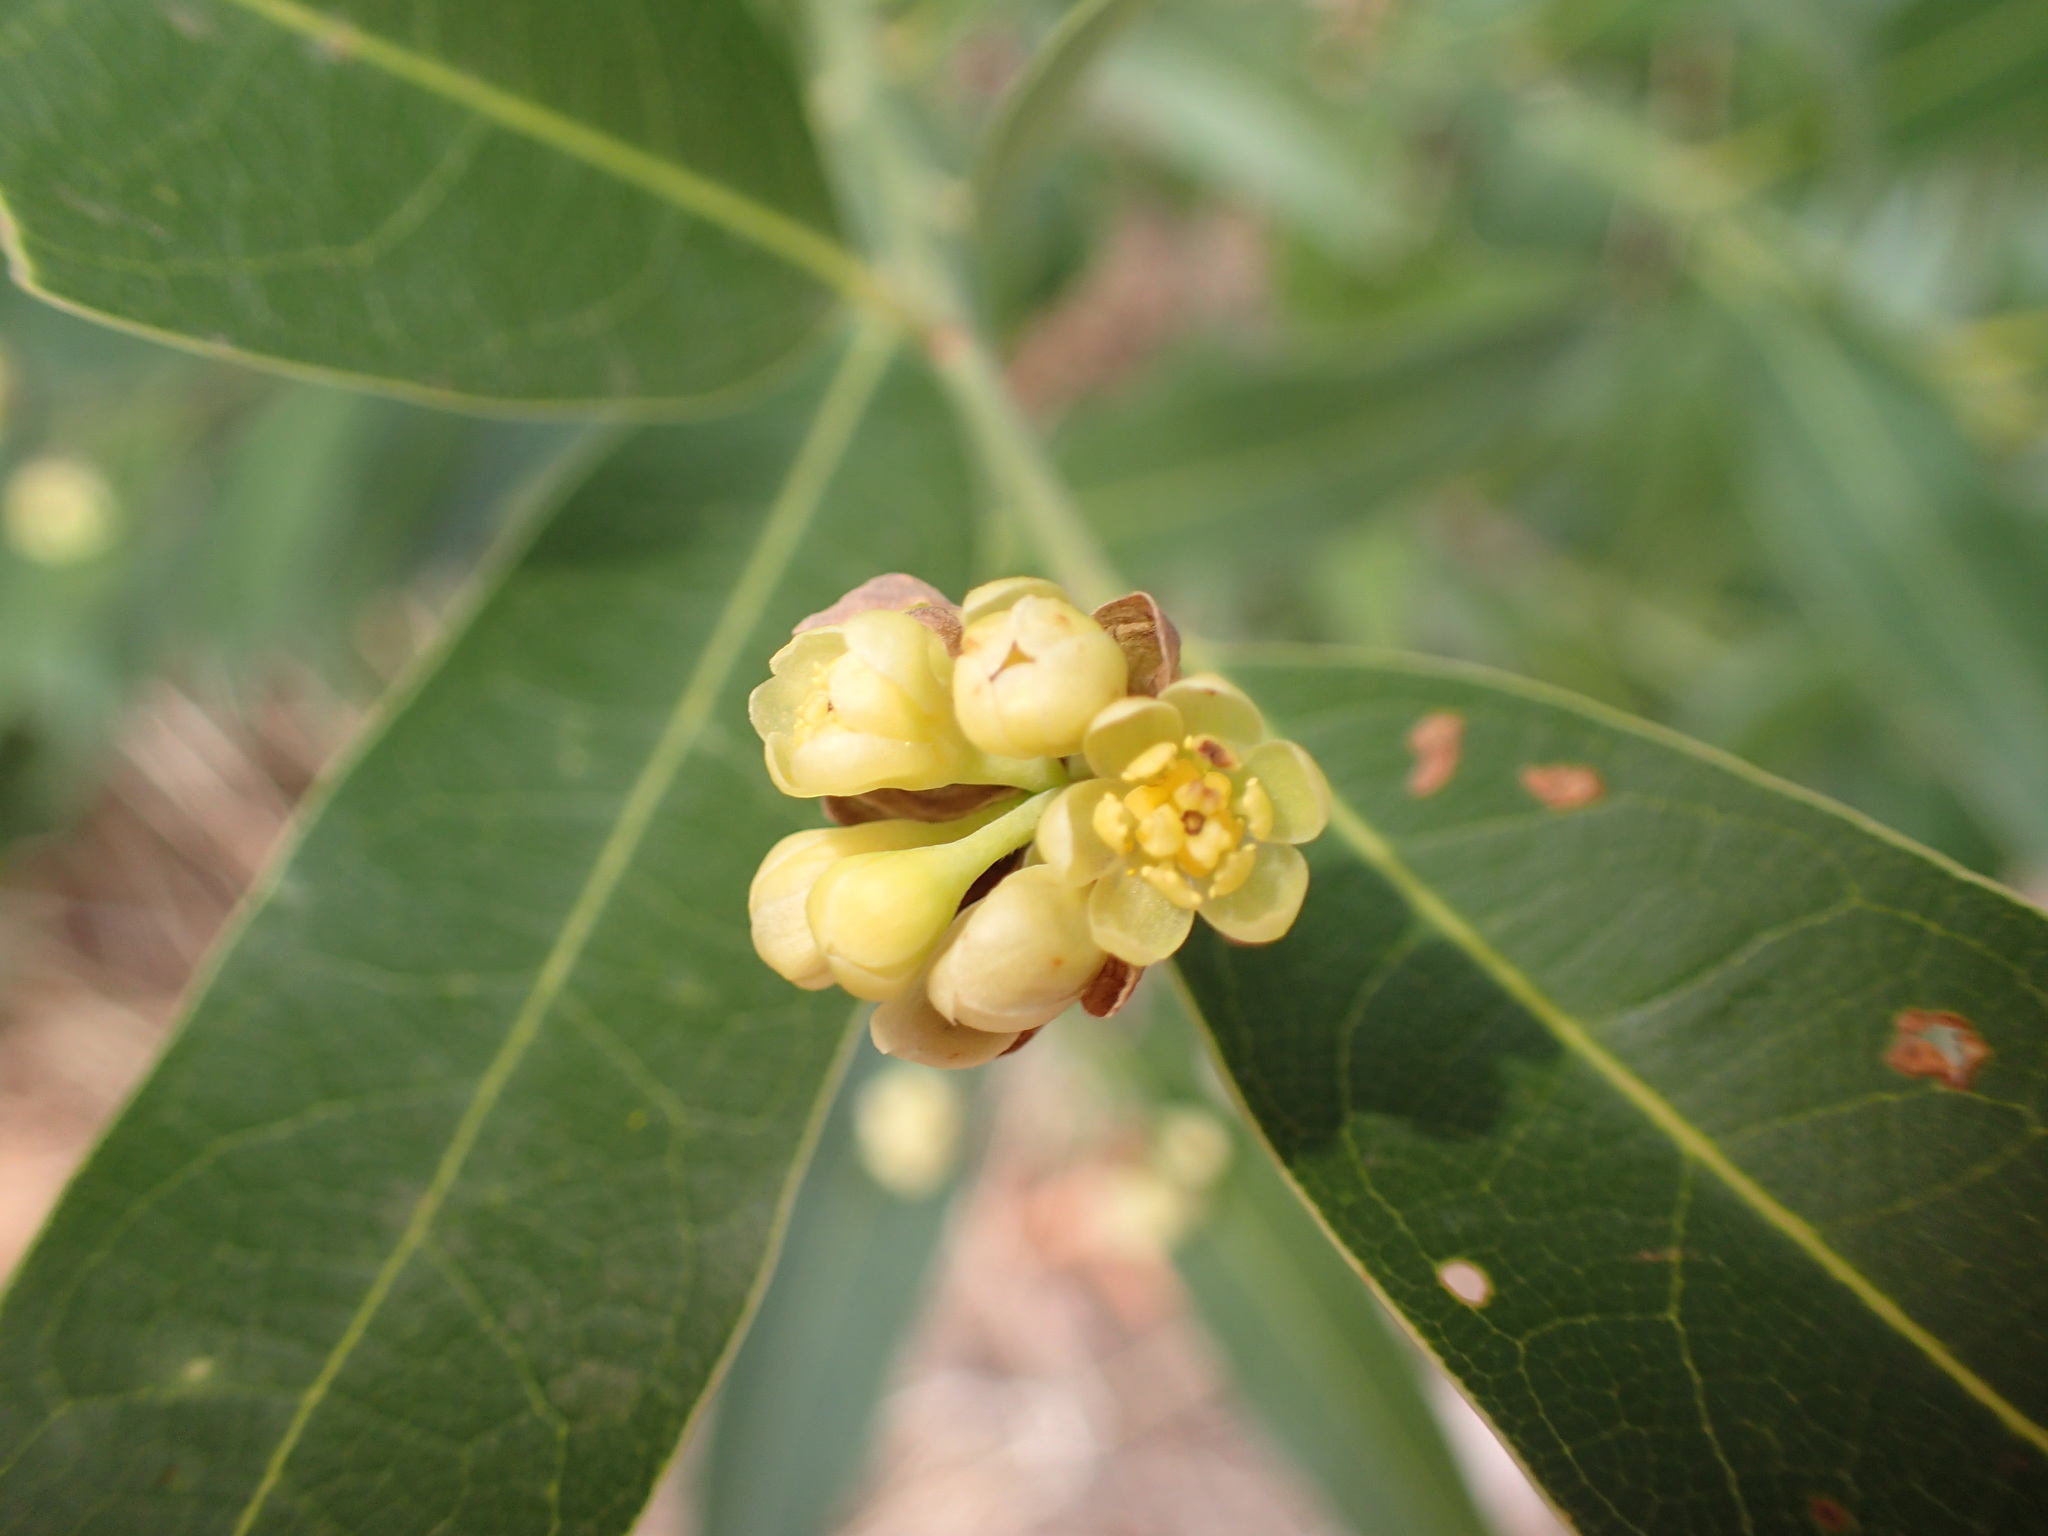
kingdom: Plantae
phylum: Tracheophyta
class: Magnoliopsida
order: Laurales
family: Lauraceae
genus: Umbellularia
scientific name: Umbellularia californica
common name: California bay
